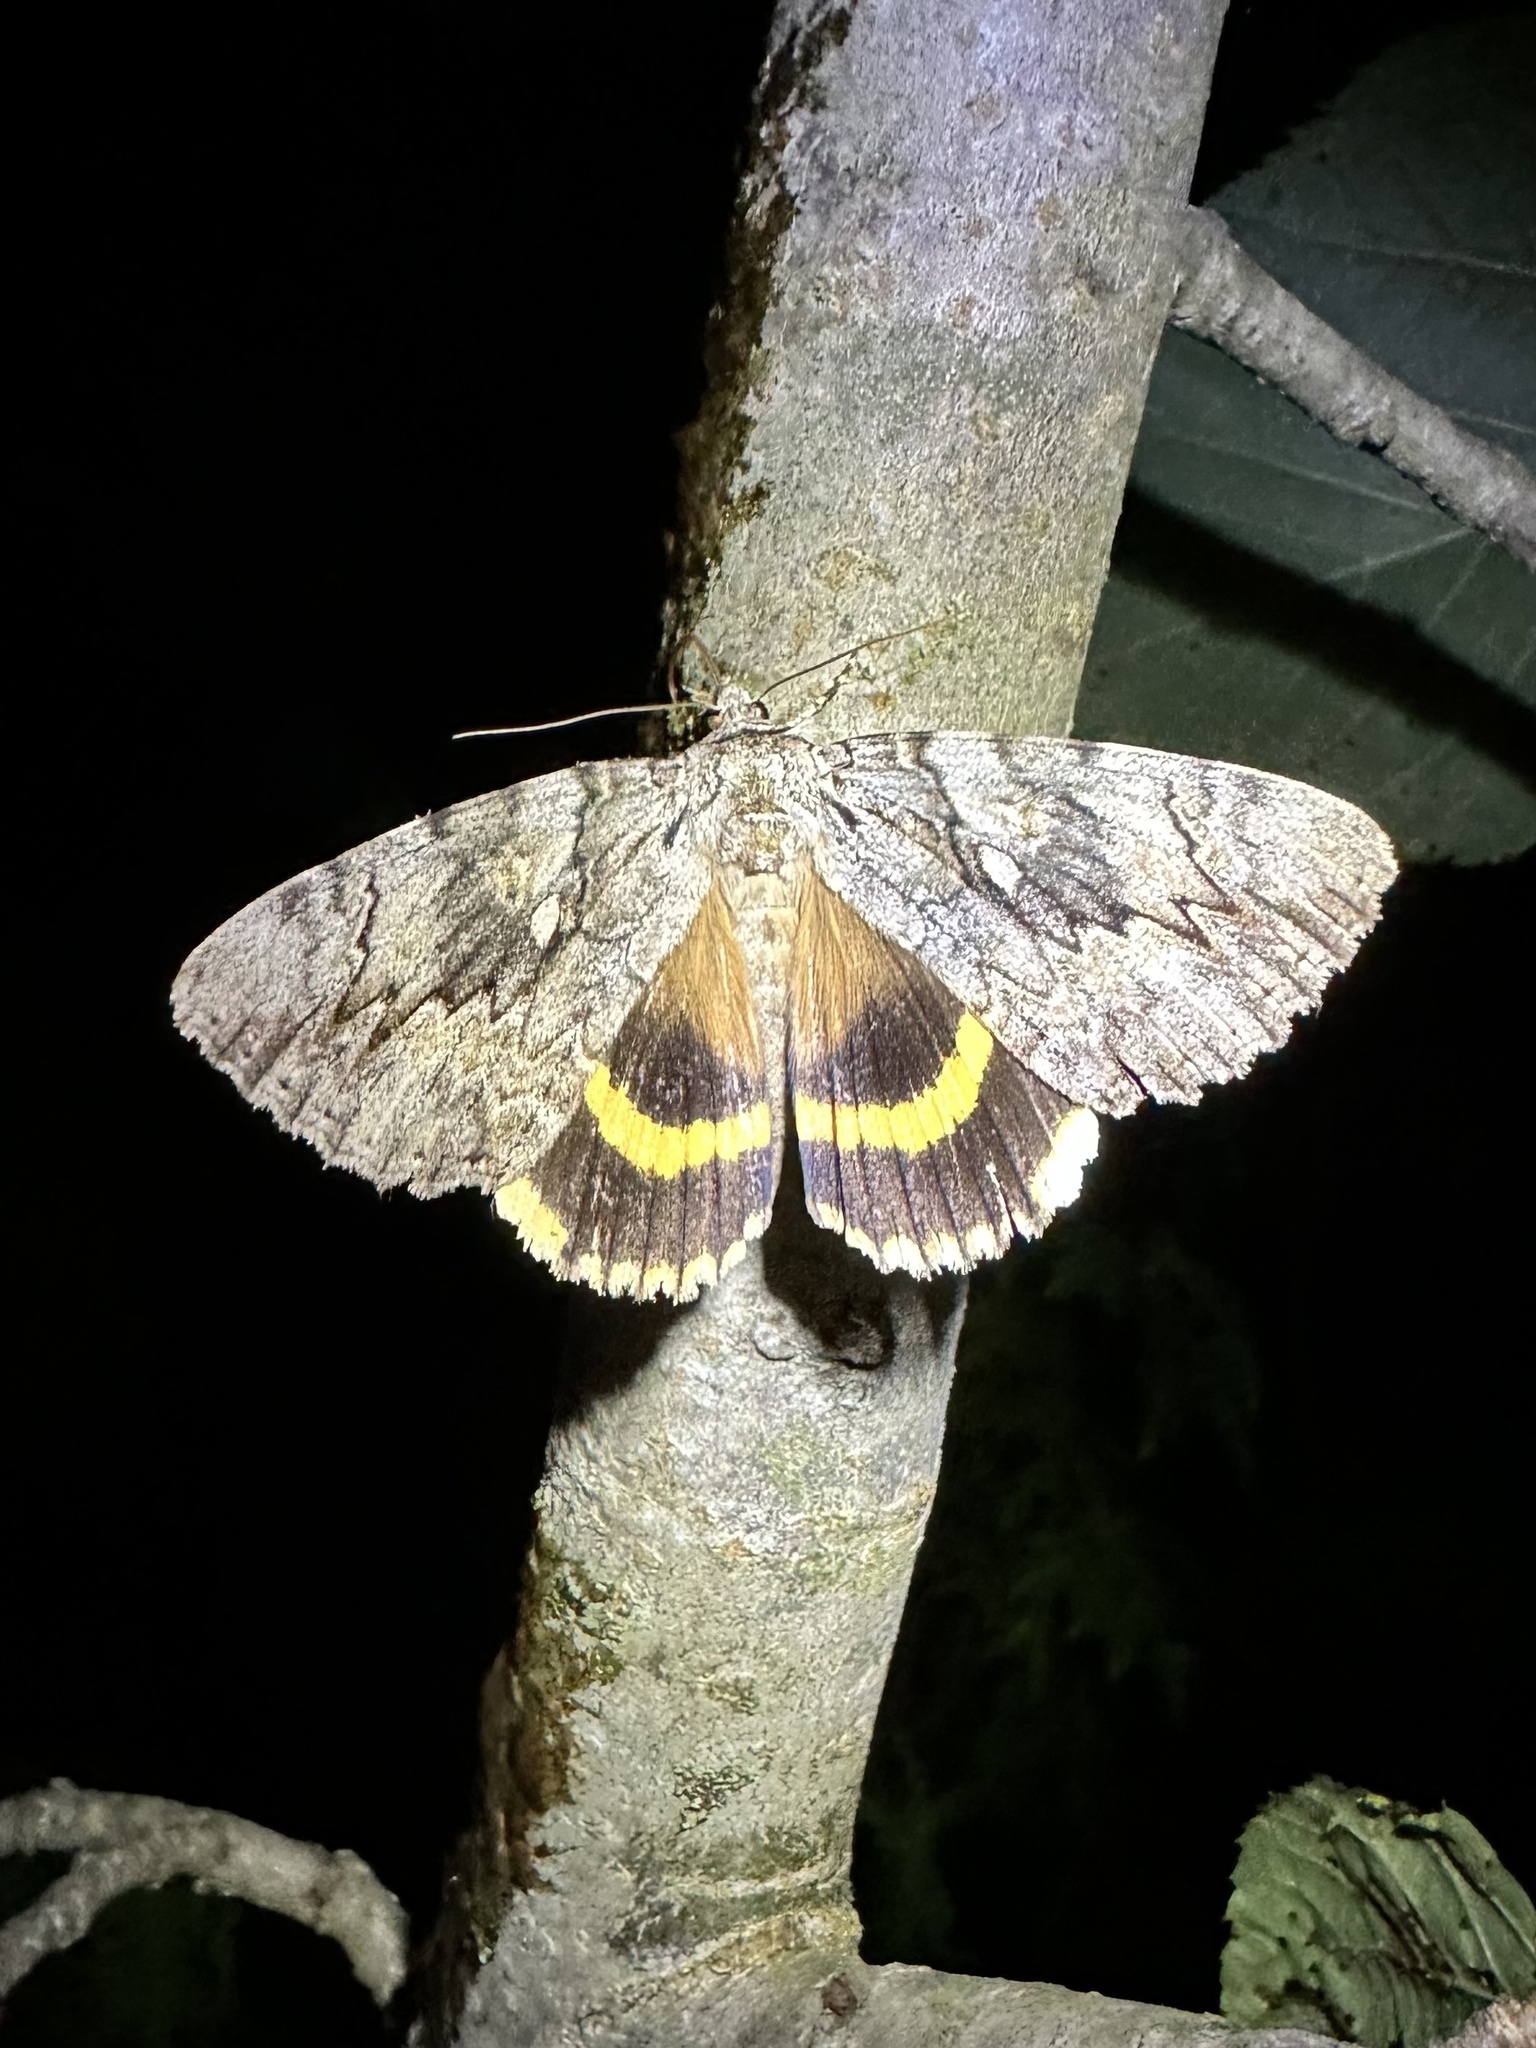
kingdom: Animalia
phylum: Arthropoda
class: Insecta
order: Lepidoptera
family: Erebidae
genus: Catocala
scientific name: Catocala cerogama
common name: Yellow banded underwing
